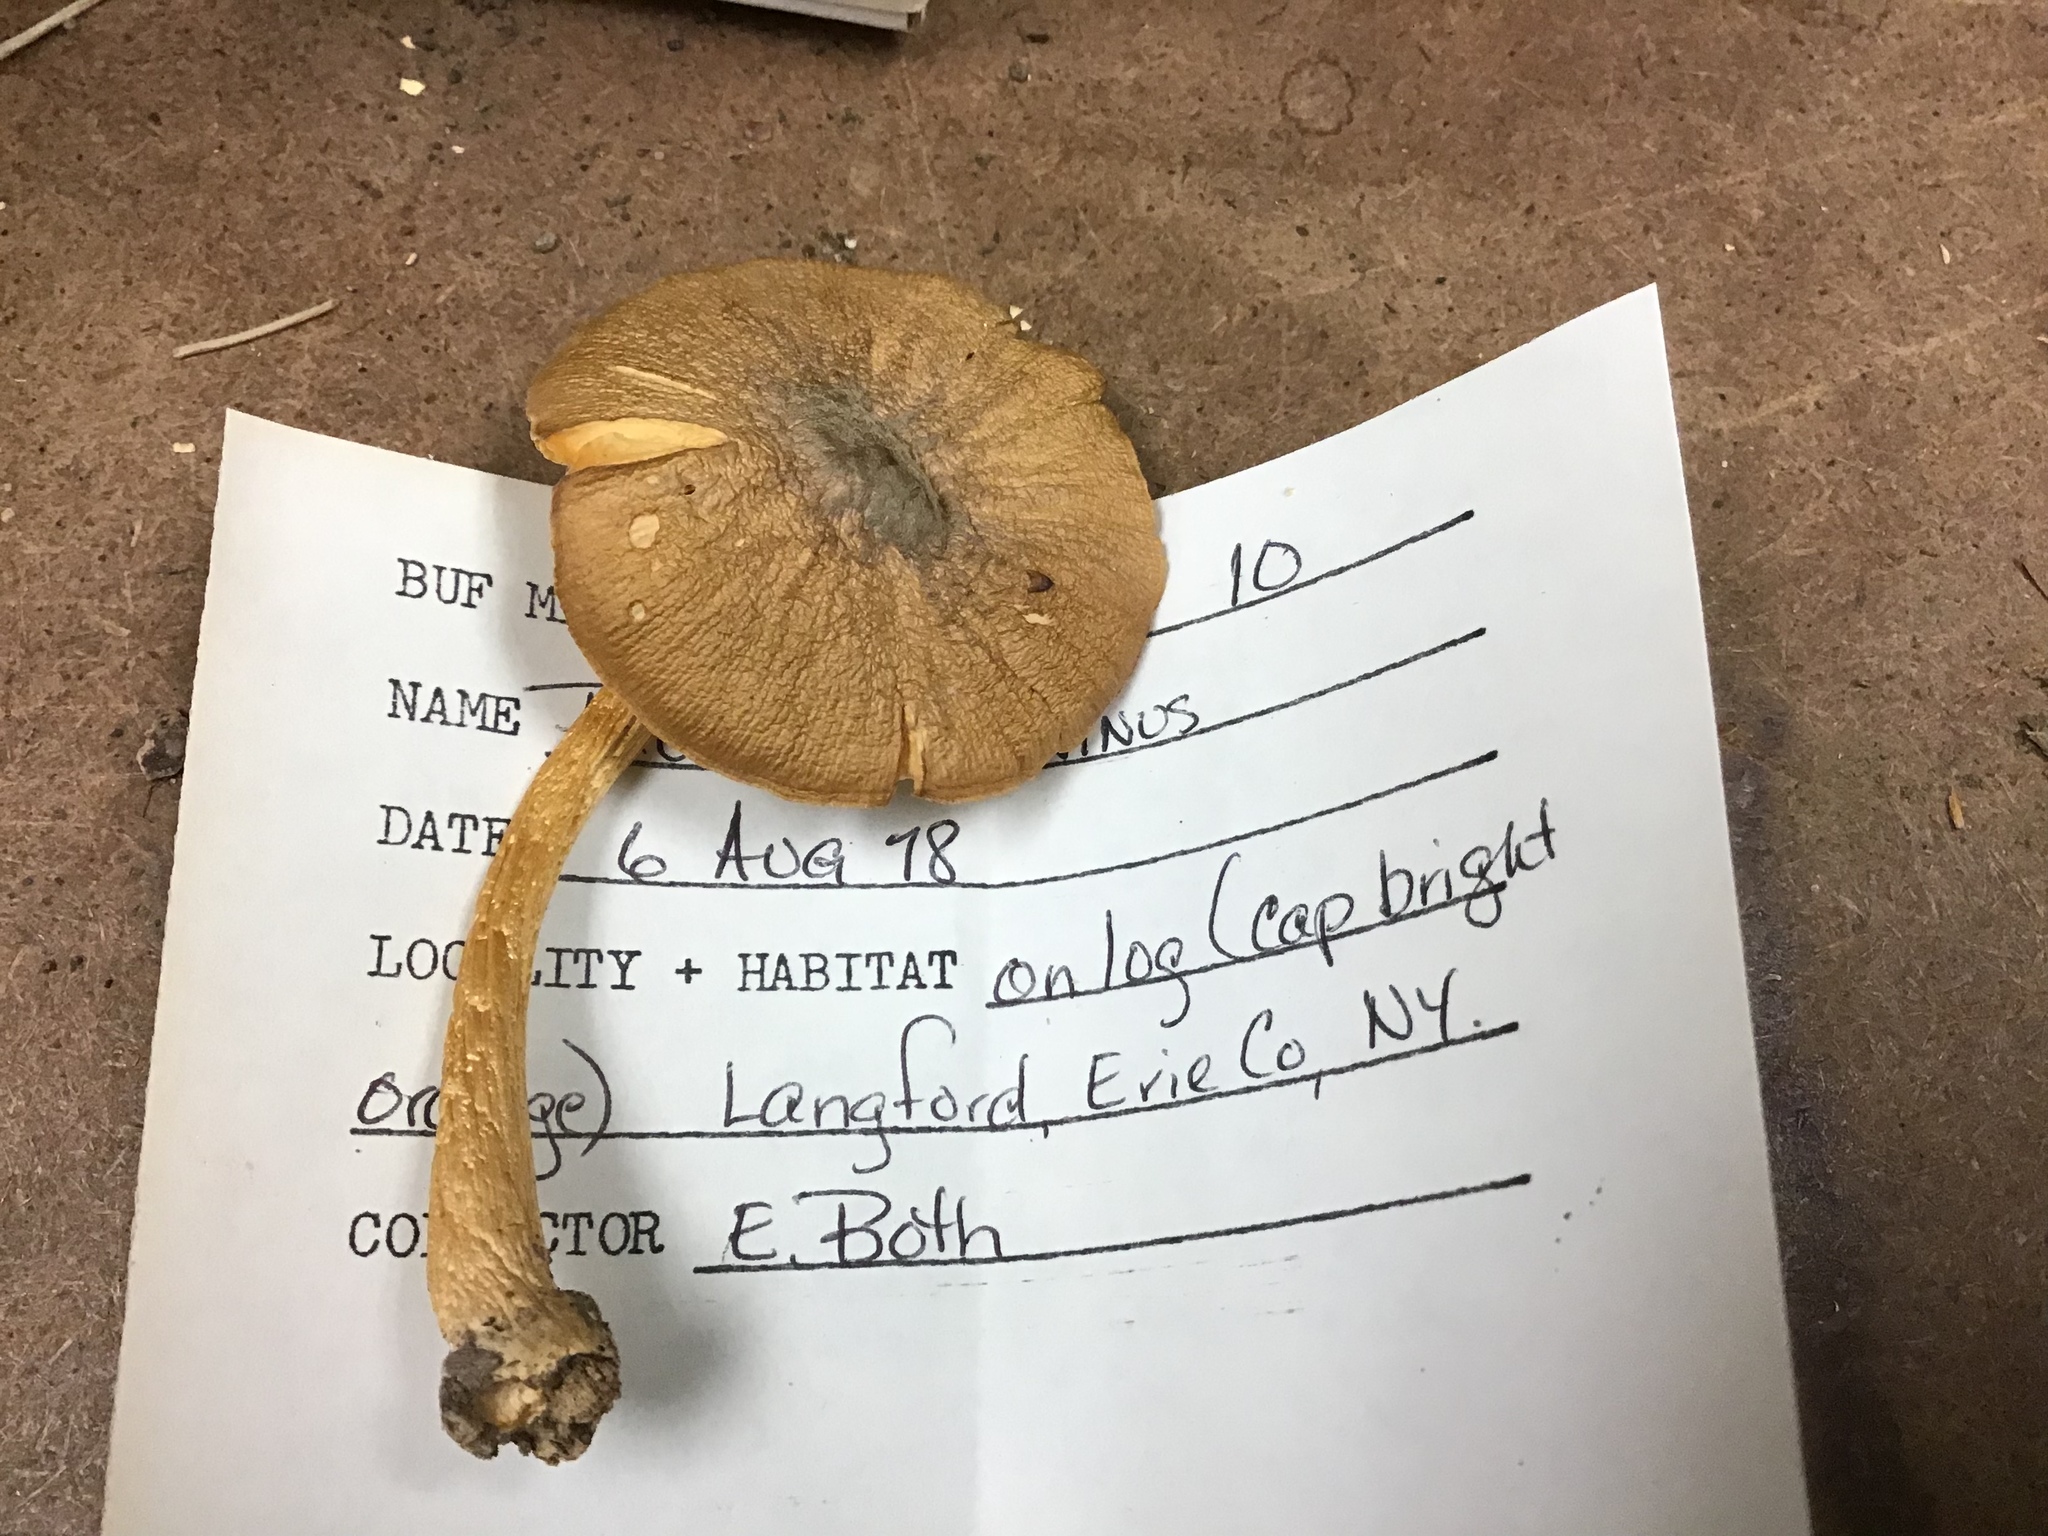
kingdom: Fungi
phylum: Basidiomycota
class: Agaricomycetes
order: Agaricales
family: Pluteaceae
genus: Pluteus
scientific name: Pluteus leoninus
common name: Lion shield
